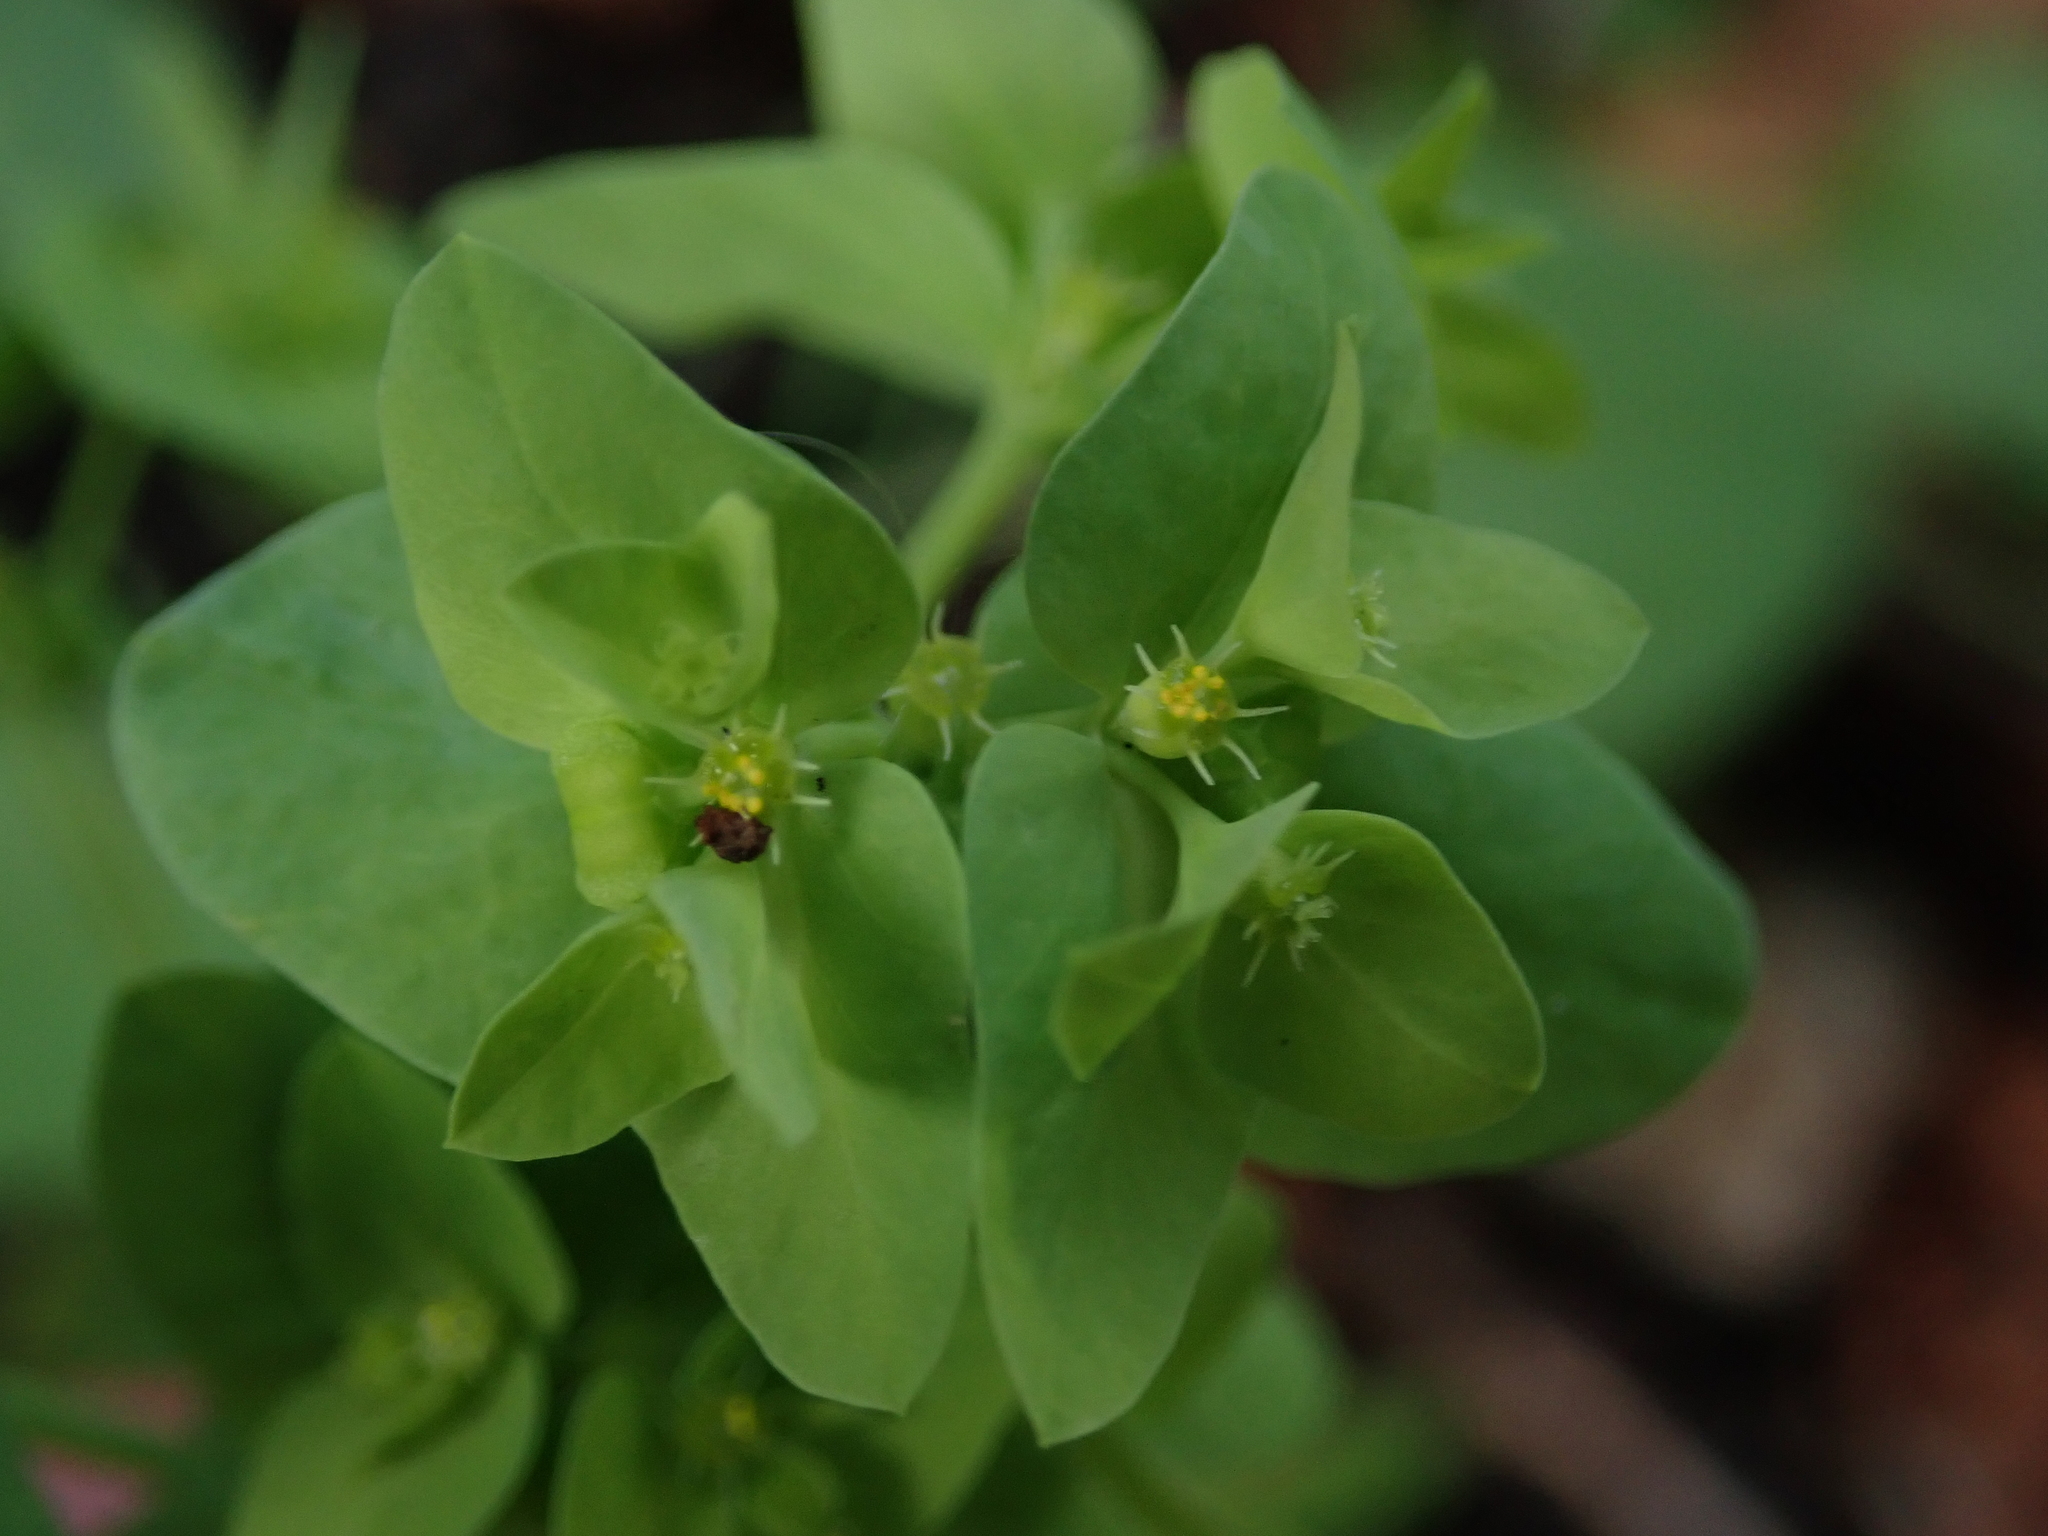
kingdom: Plantae
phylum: Tracheophyta
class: Magnoliopsida
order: Malpighiales
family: Euphorbiaceae
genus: Euphorbia
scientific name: Euphorbia peplus
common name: Petty spurge
